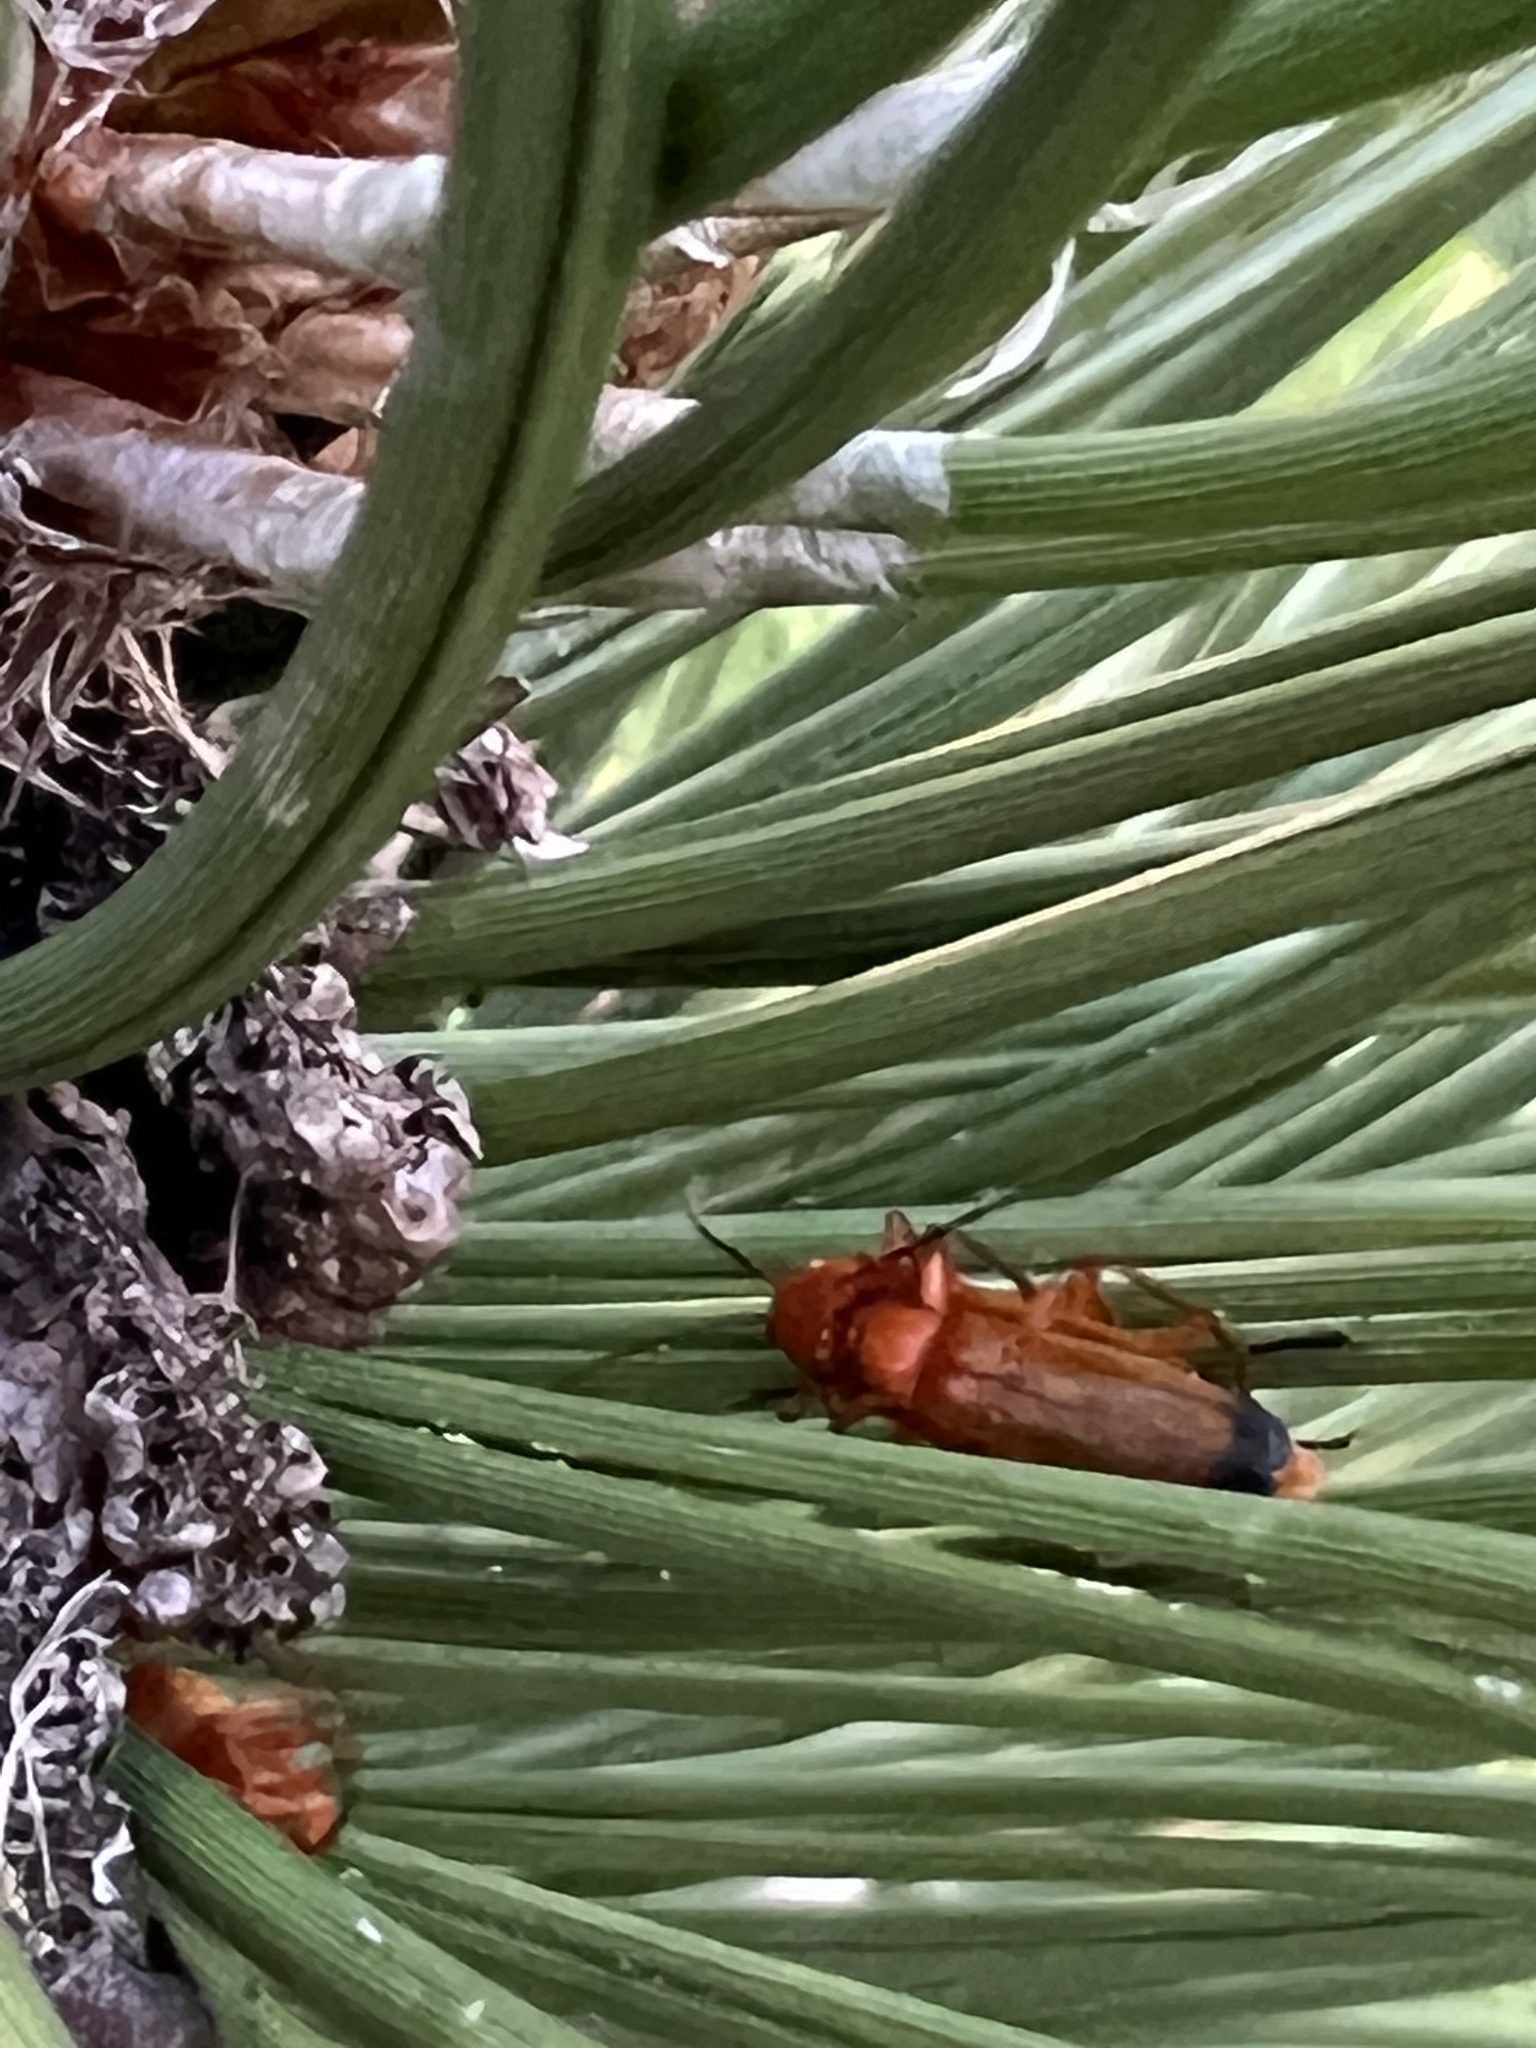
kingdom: Animalia
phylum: Arthropoda
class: Insecta
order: Coleoptera
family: Cantharidae
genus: Rhagonycha
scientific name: Rhagonycha fulva
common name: Common red soldier beetle
